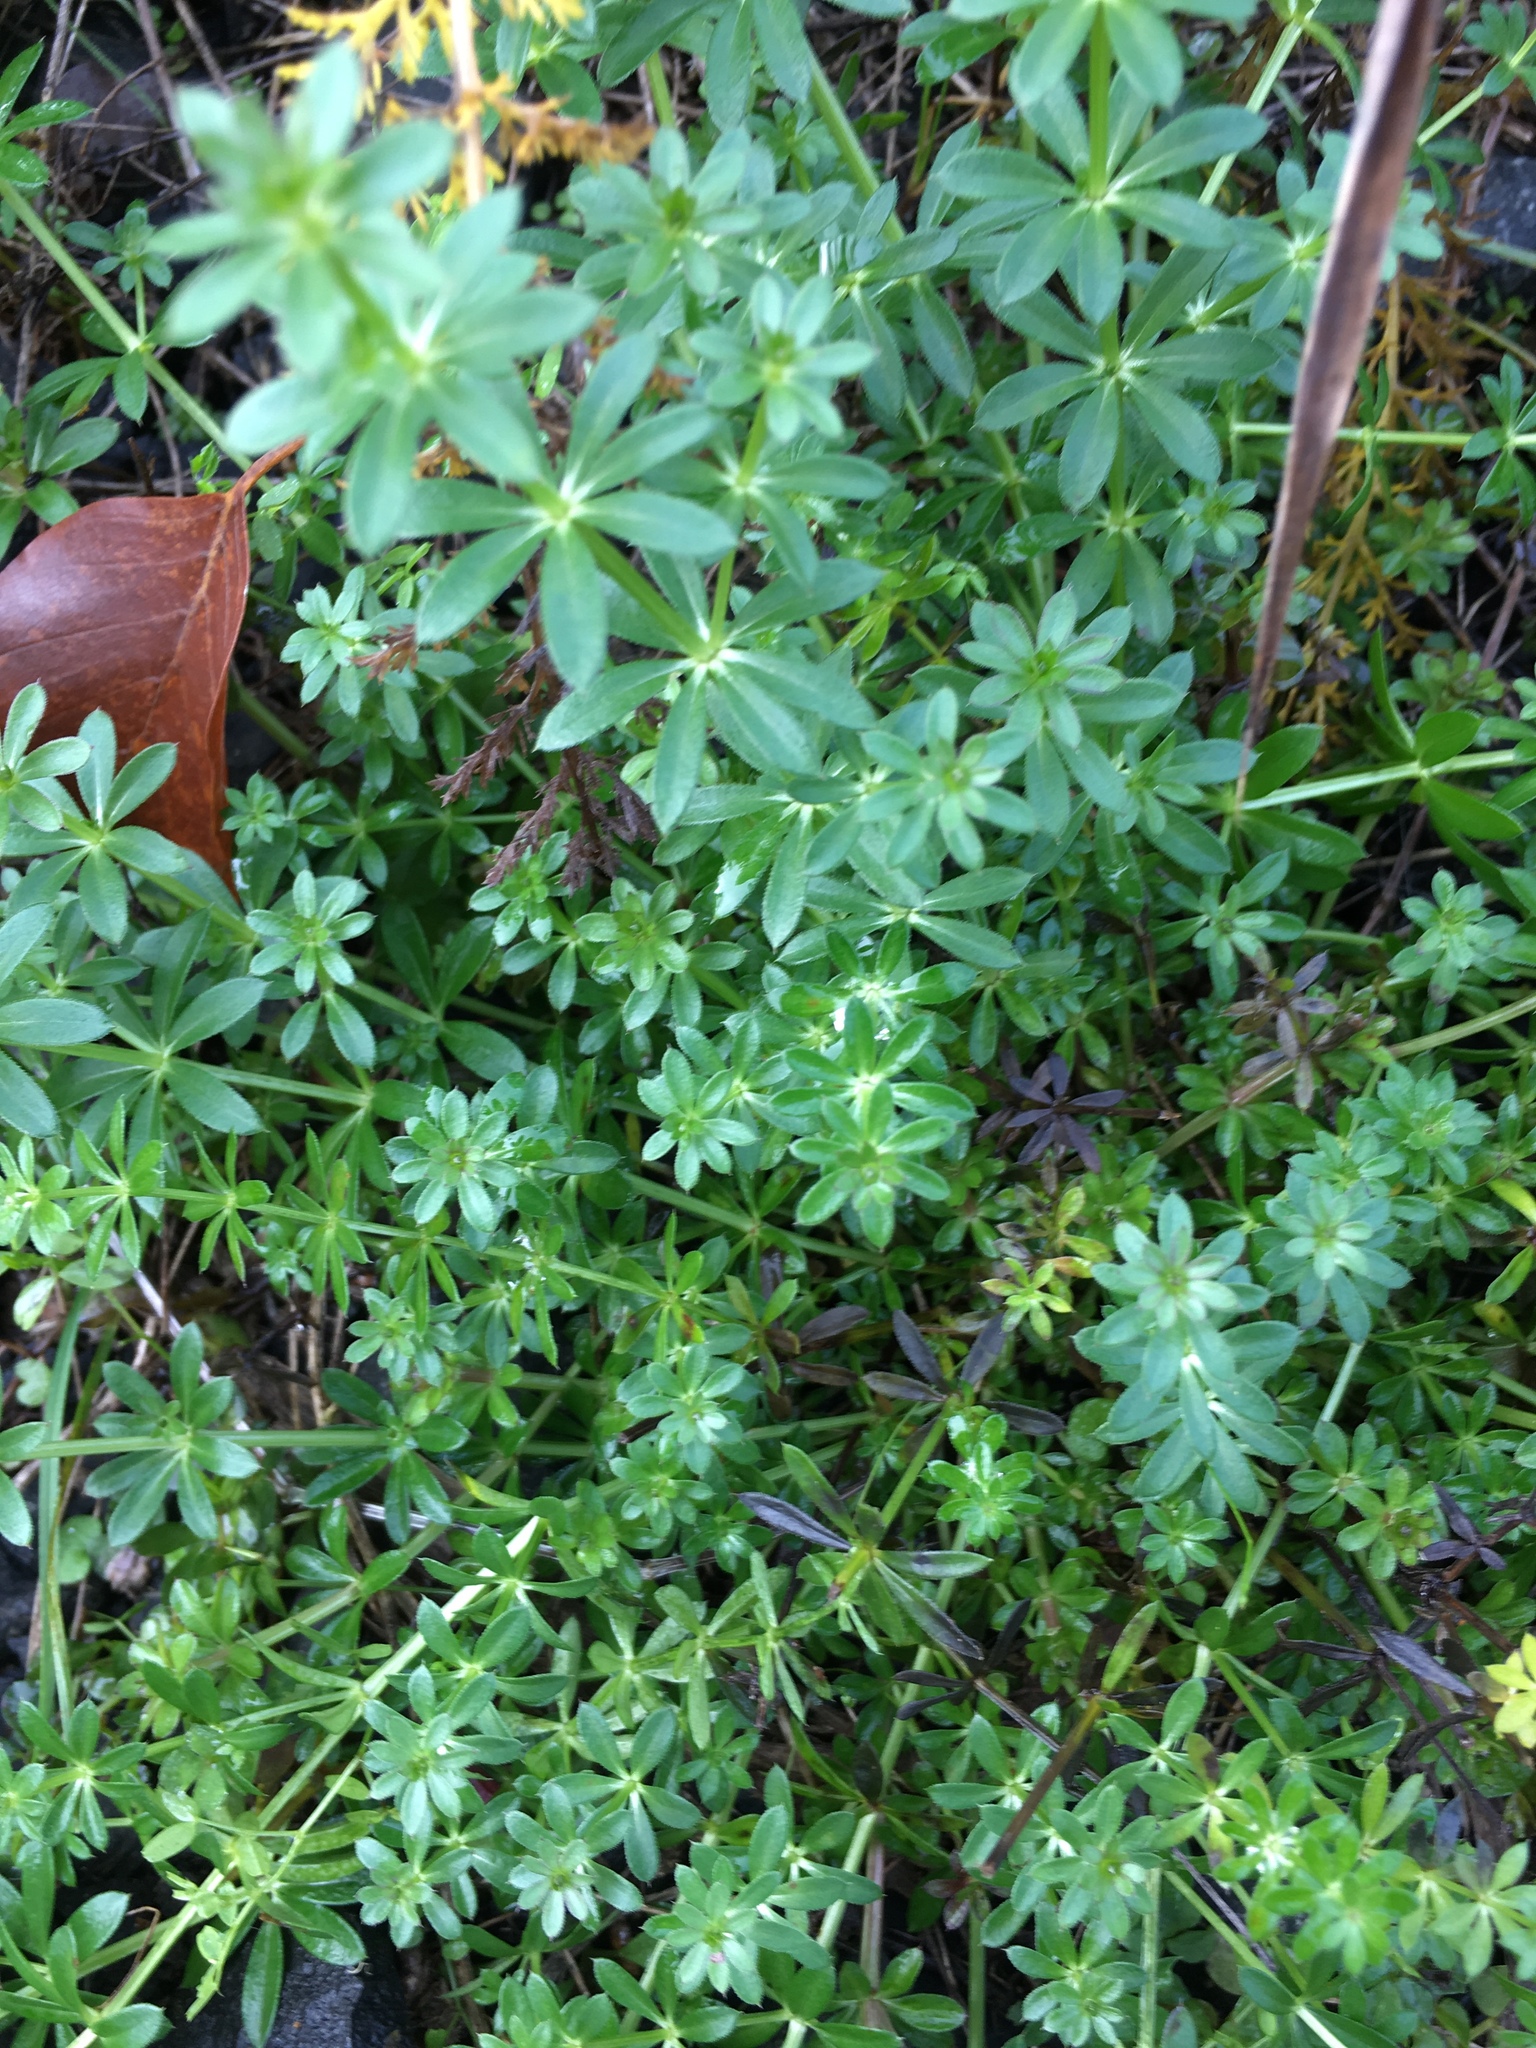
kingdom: Plantae
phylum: Tracheophyta
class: Magnoliopsida
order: Gentianales
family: Rubiaceae
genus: Galium
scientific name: Galium mollugo
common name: Hedge bedstraw
